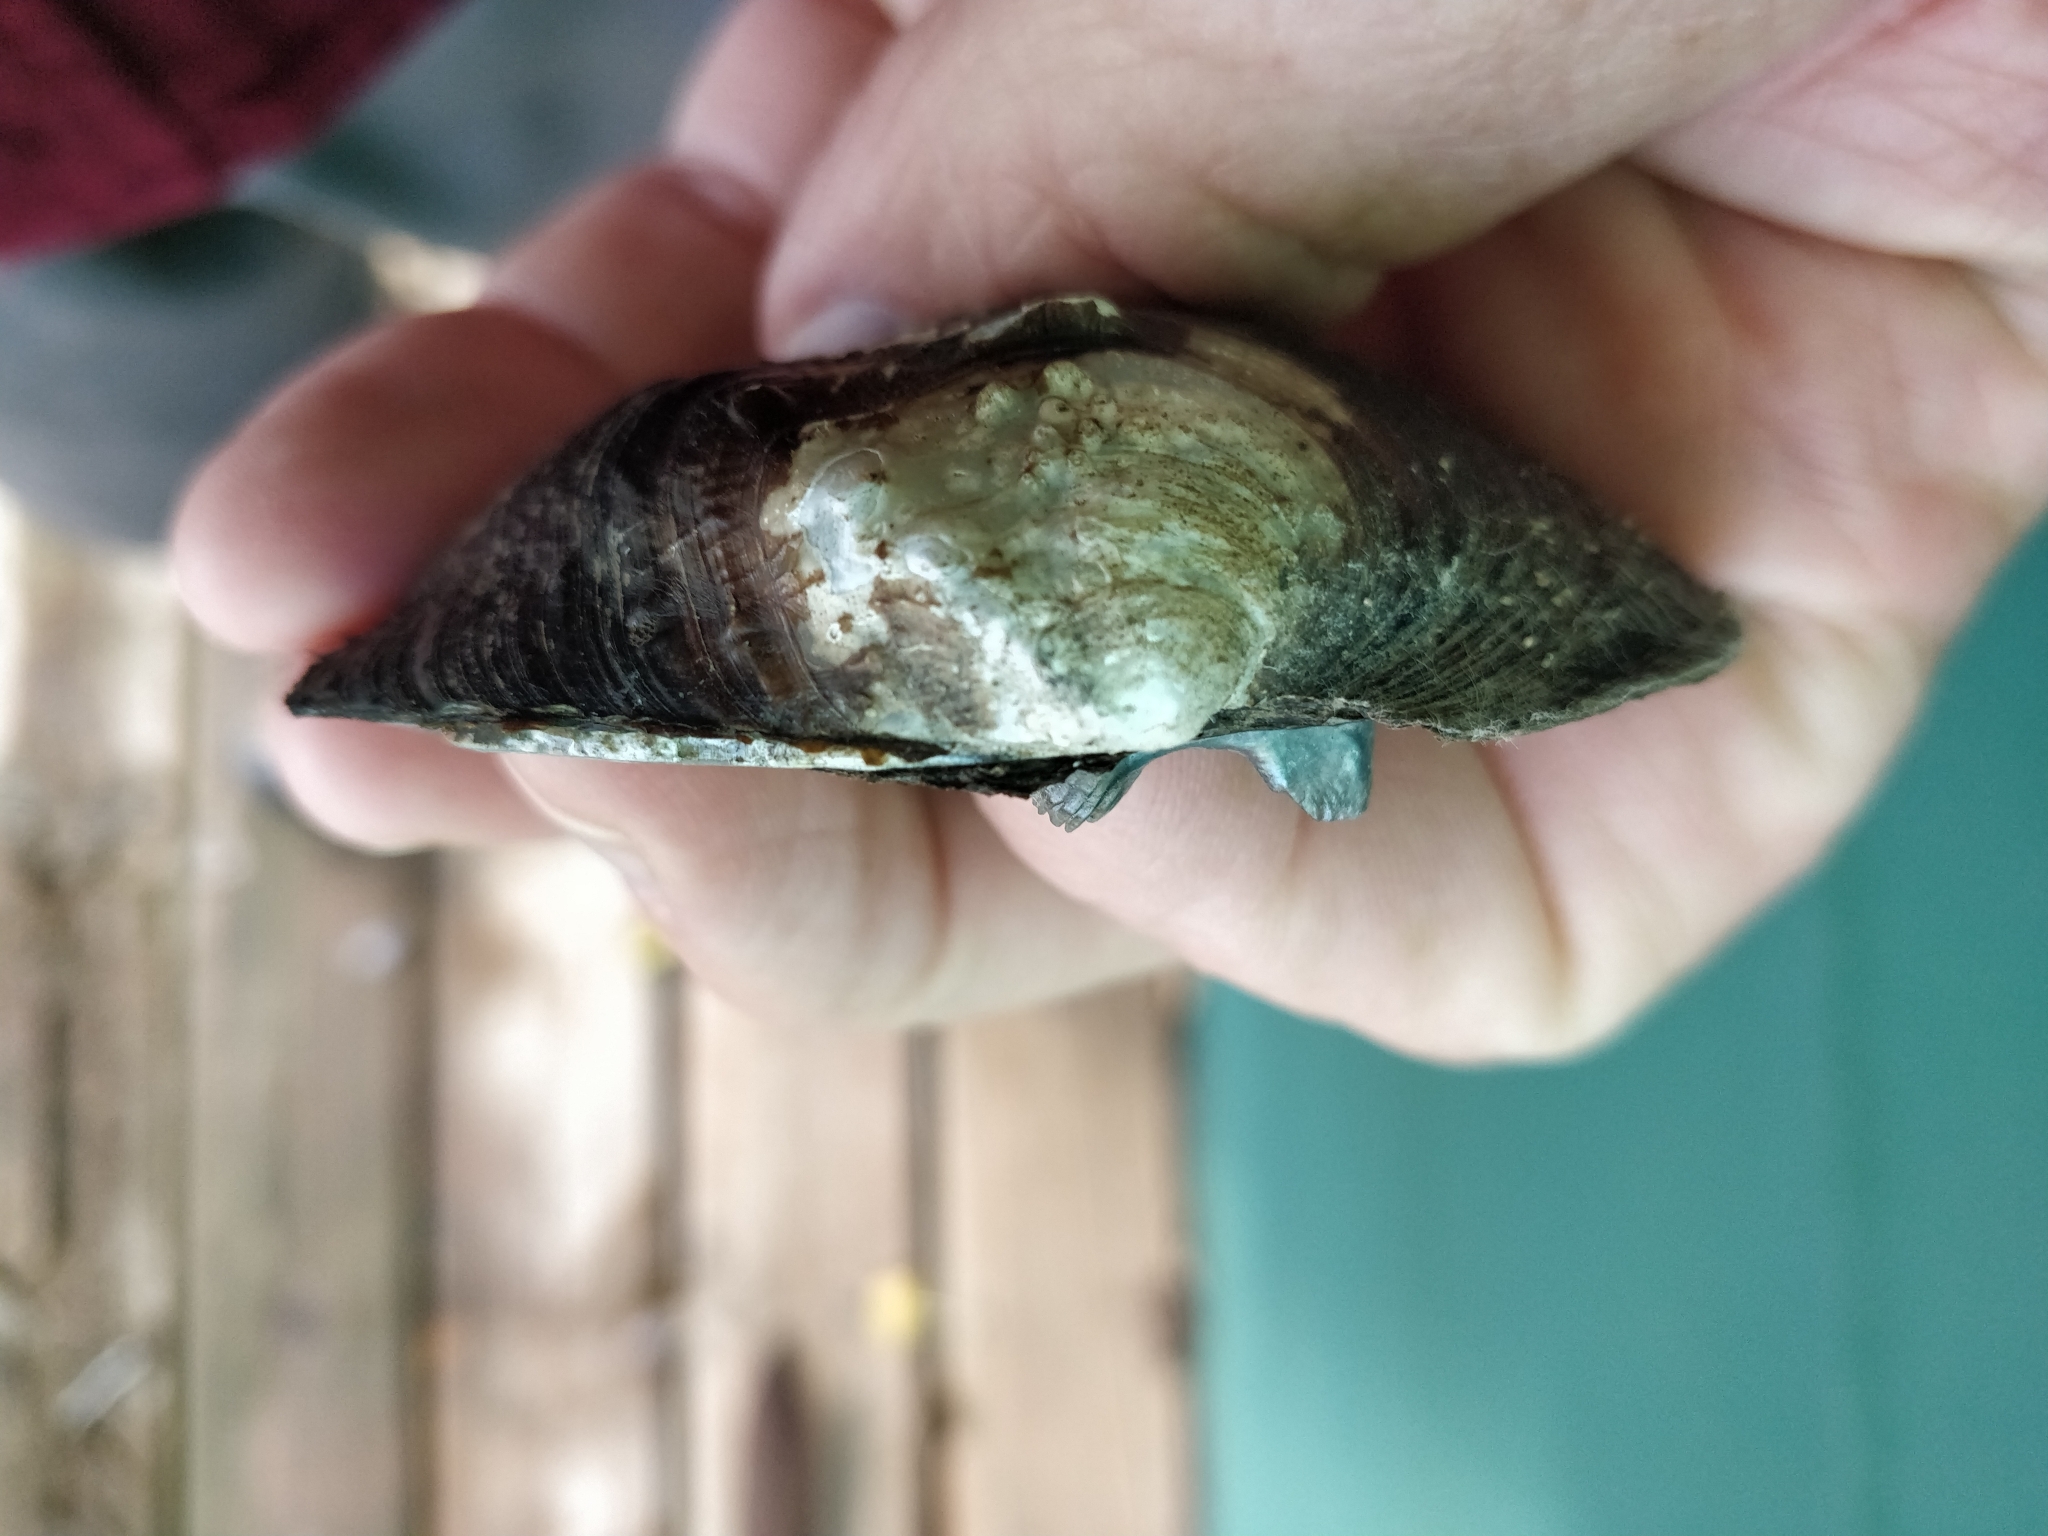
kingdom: Animalia
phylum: Mollusca
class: Bivalvia
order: Unionida
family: Unionidae
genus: Quadrula
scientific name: Quadrula quadrula
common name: Mapleleaf
